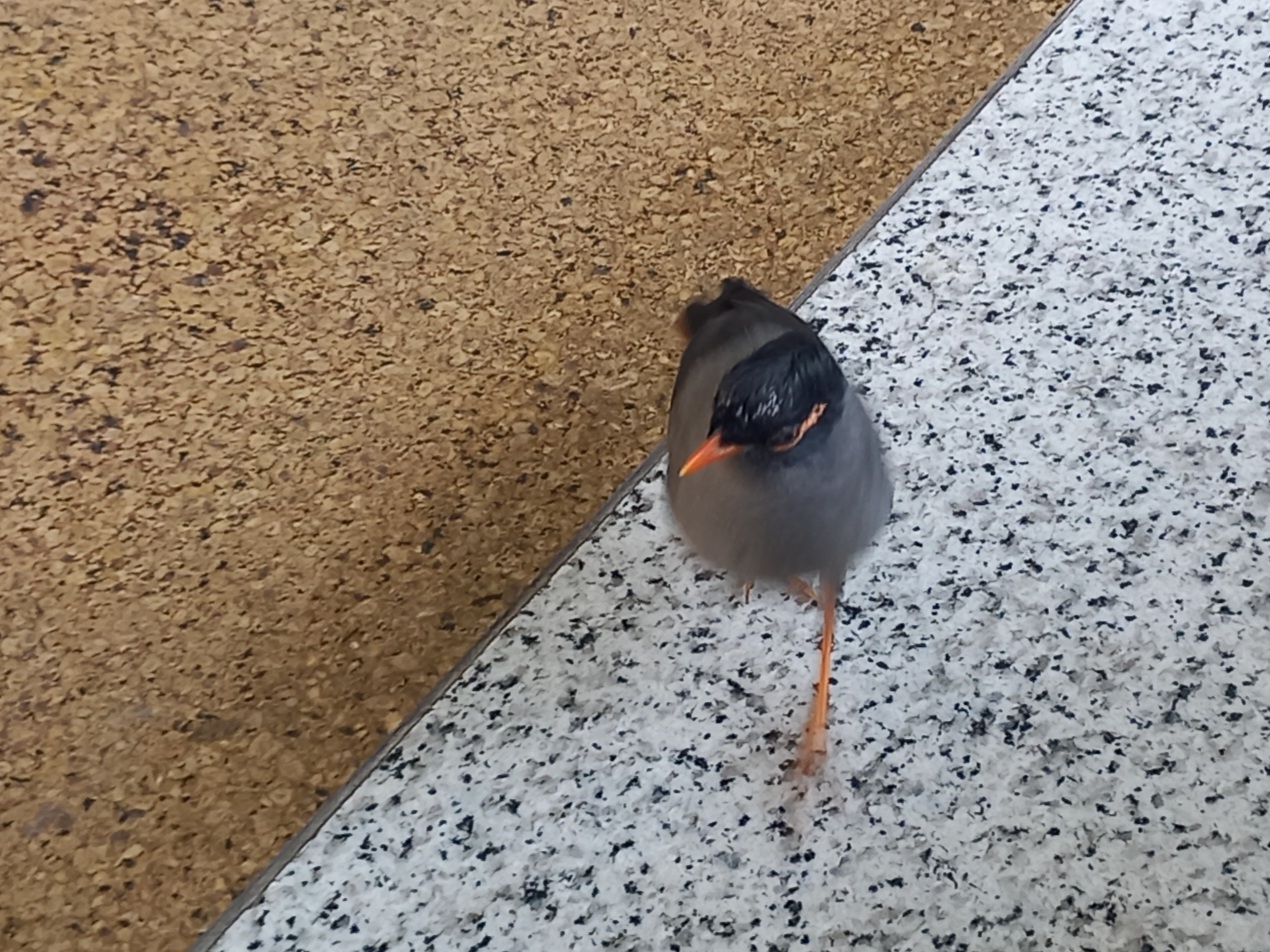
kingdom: Animalia
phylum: Chordata
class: Aves
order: Passeriformes
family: Sturnidae
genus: Acridotheres
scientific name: Acridotheres ginginianus
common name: Bank myna
